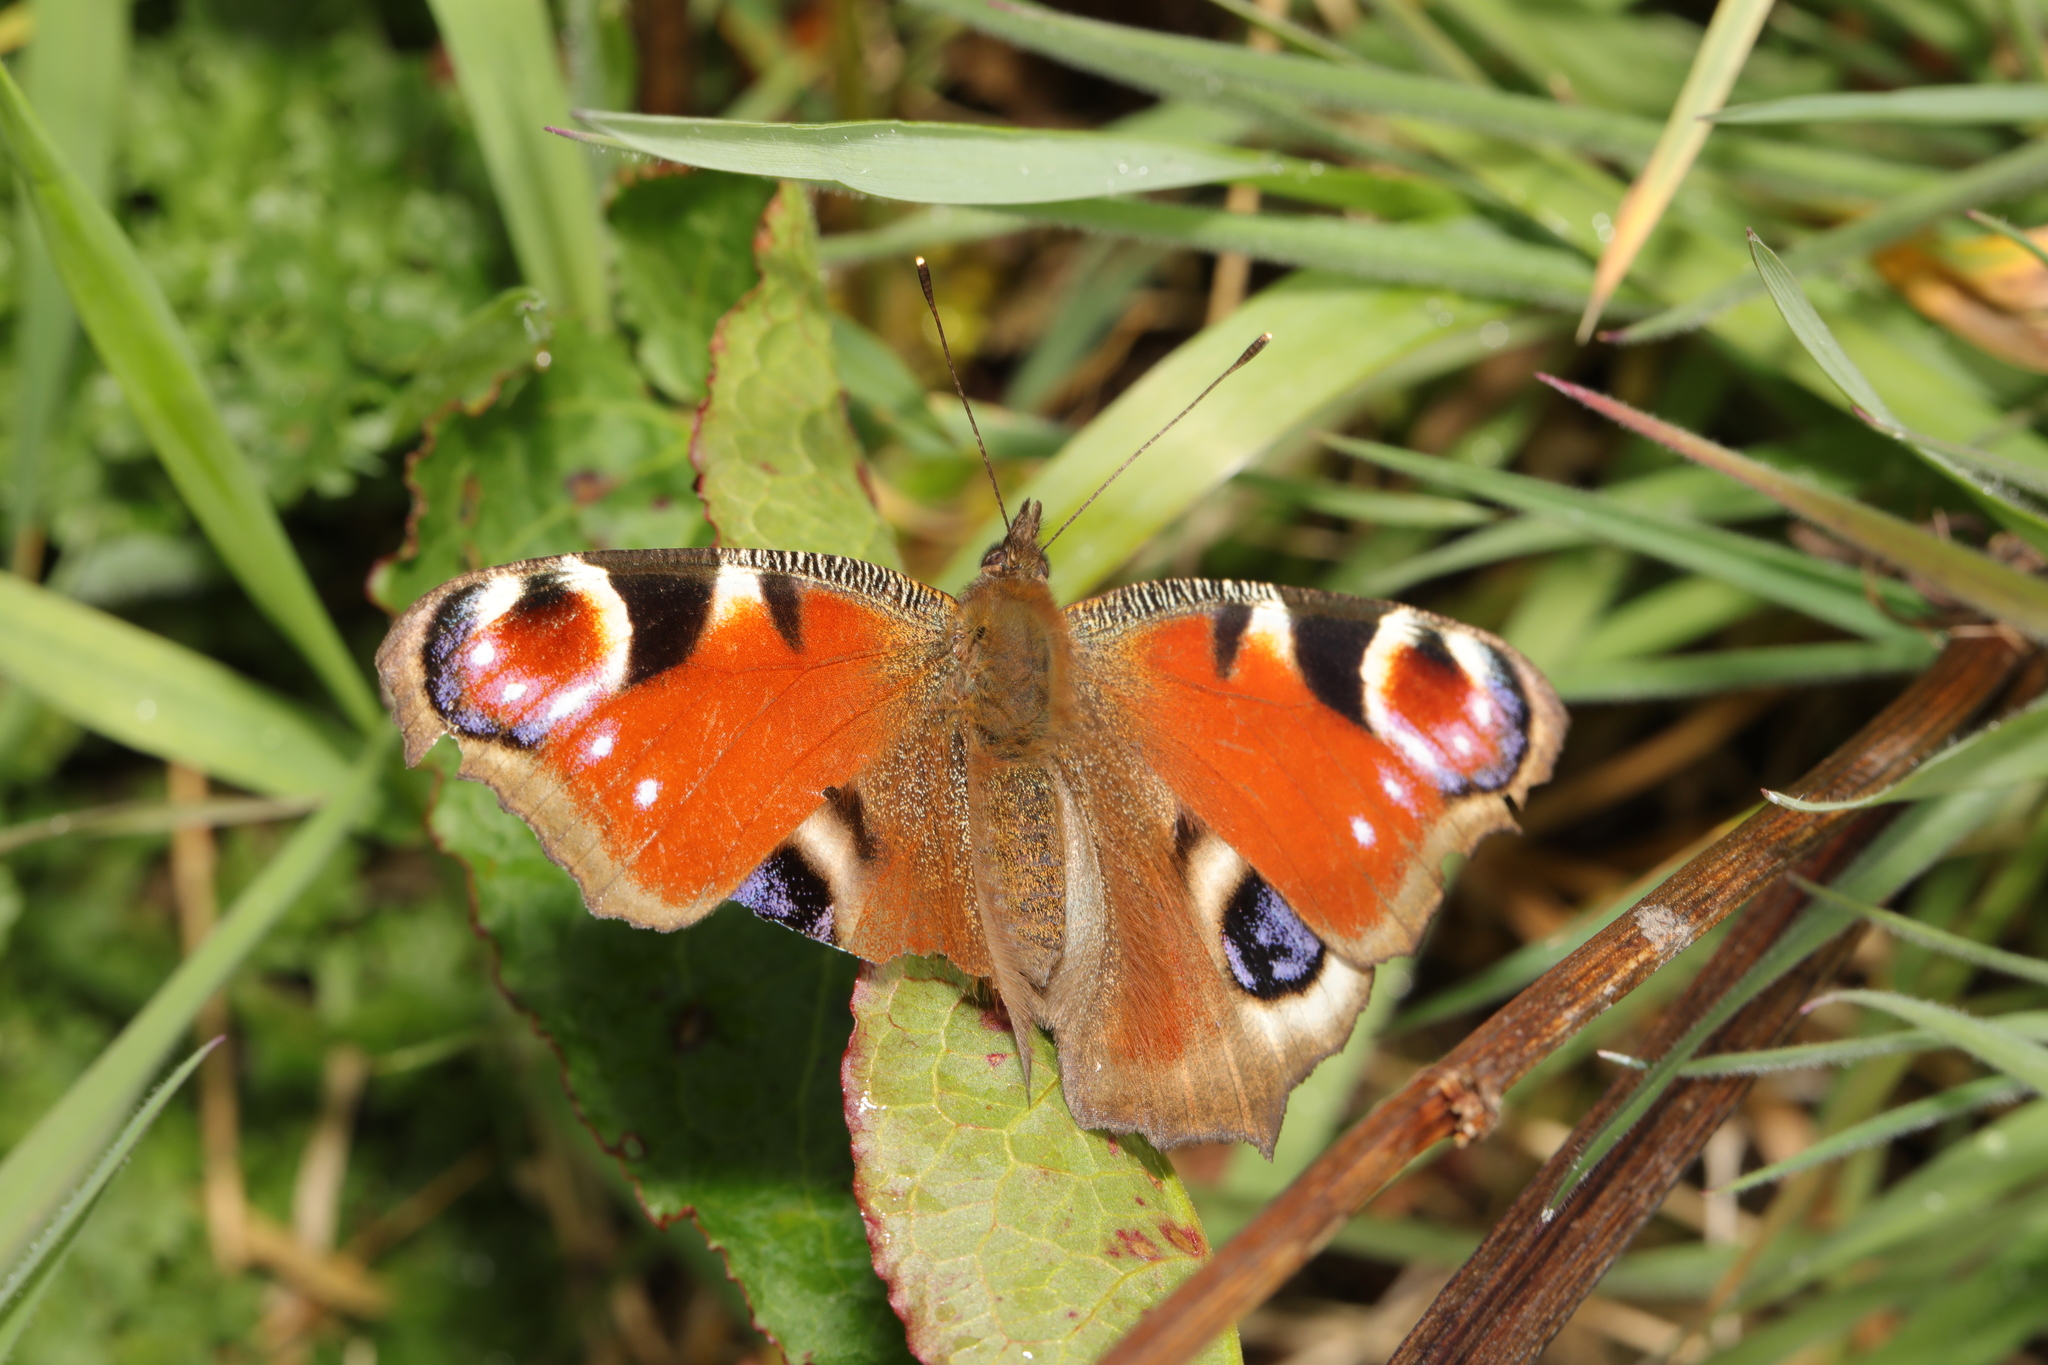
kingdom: Animalia
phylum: Arthropoda
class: Insecta
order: Lepidoptera
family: Nymphalidae
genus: Aglais
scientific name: Aglais io
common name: Peacock
